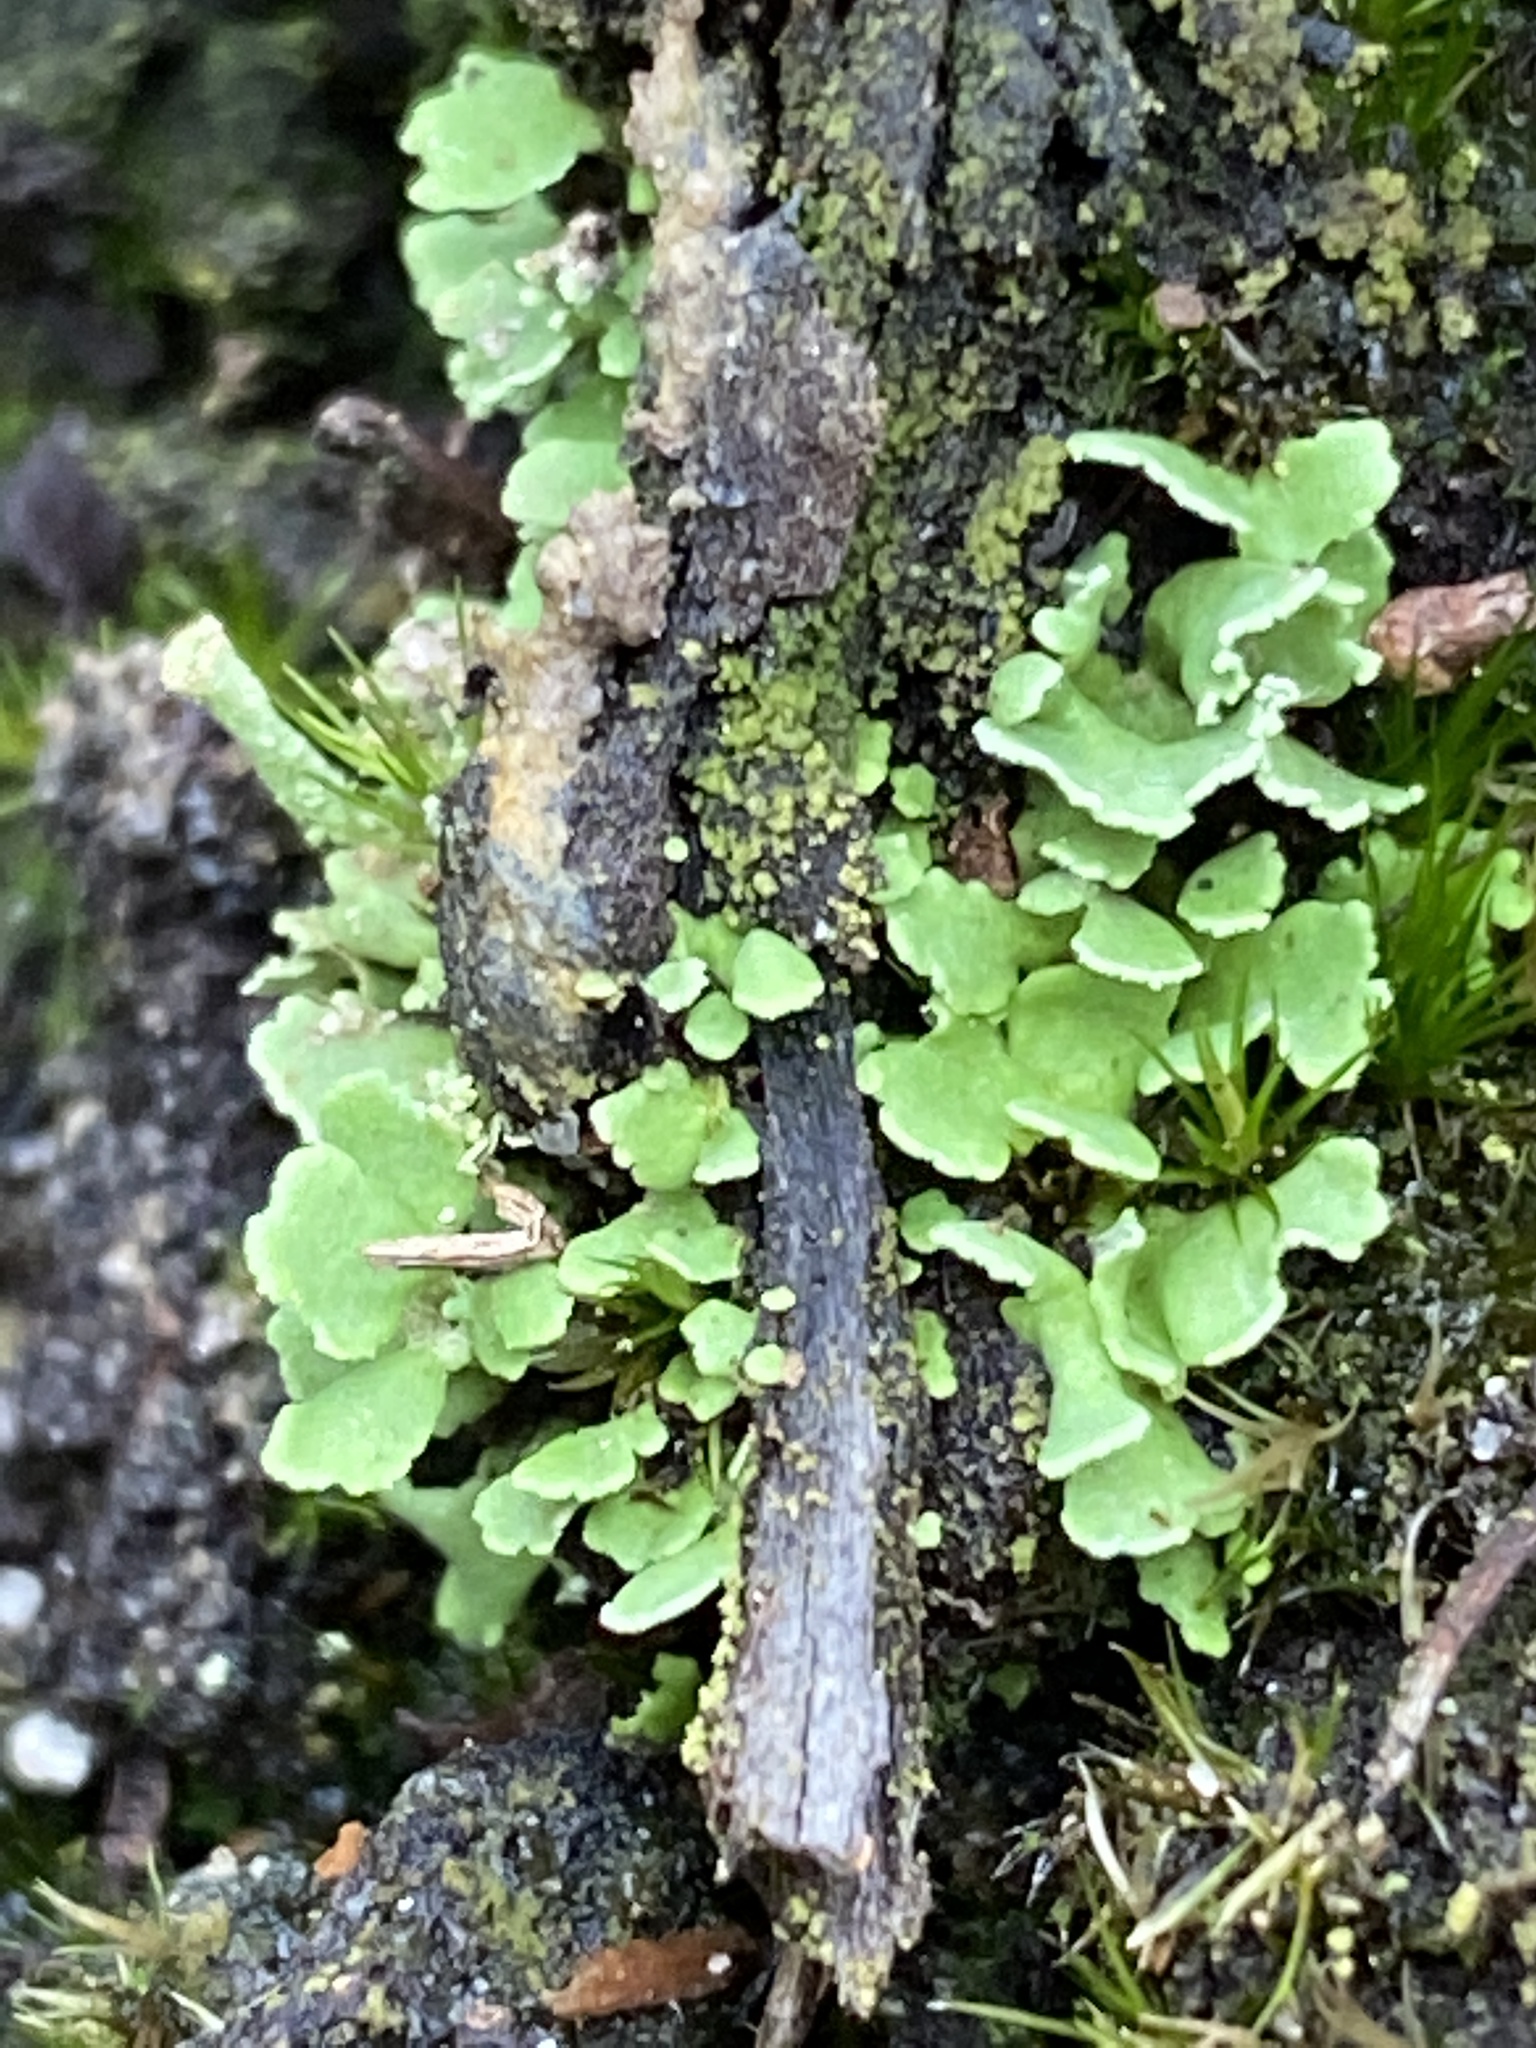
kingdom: Fungi
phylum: Ascomycota
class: Lecanoromycetes
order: Lecanorales
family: Cladoniaceae
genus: Cladonia
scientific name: Cladonia
